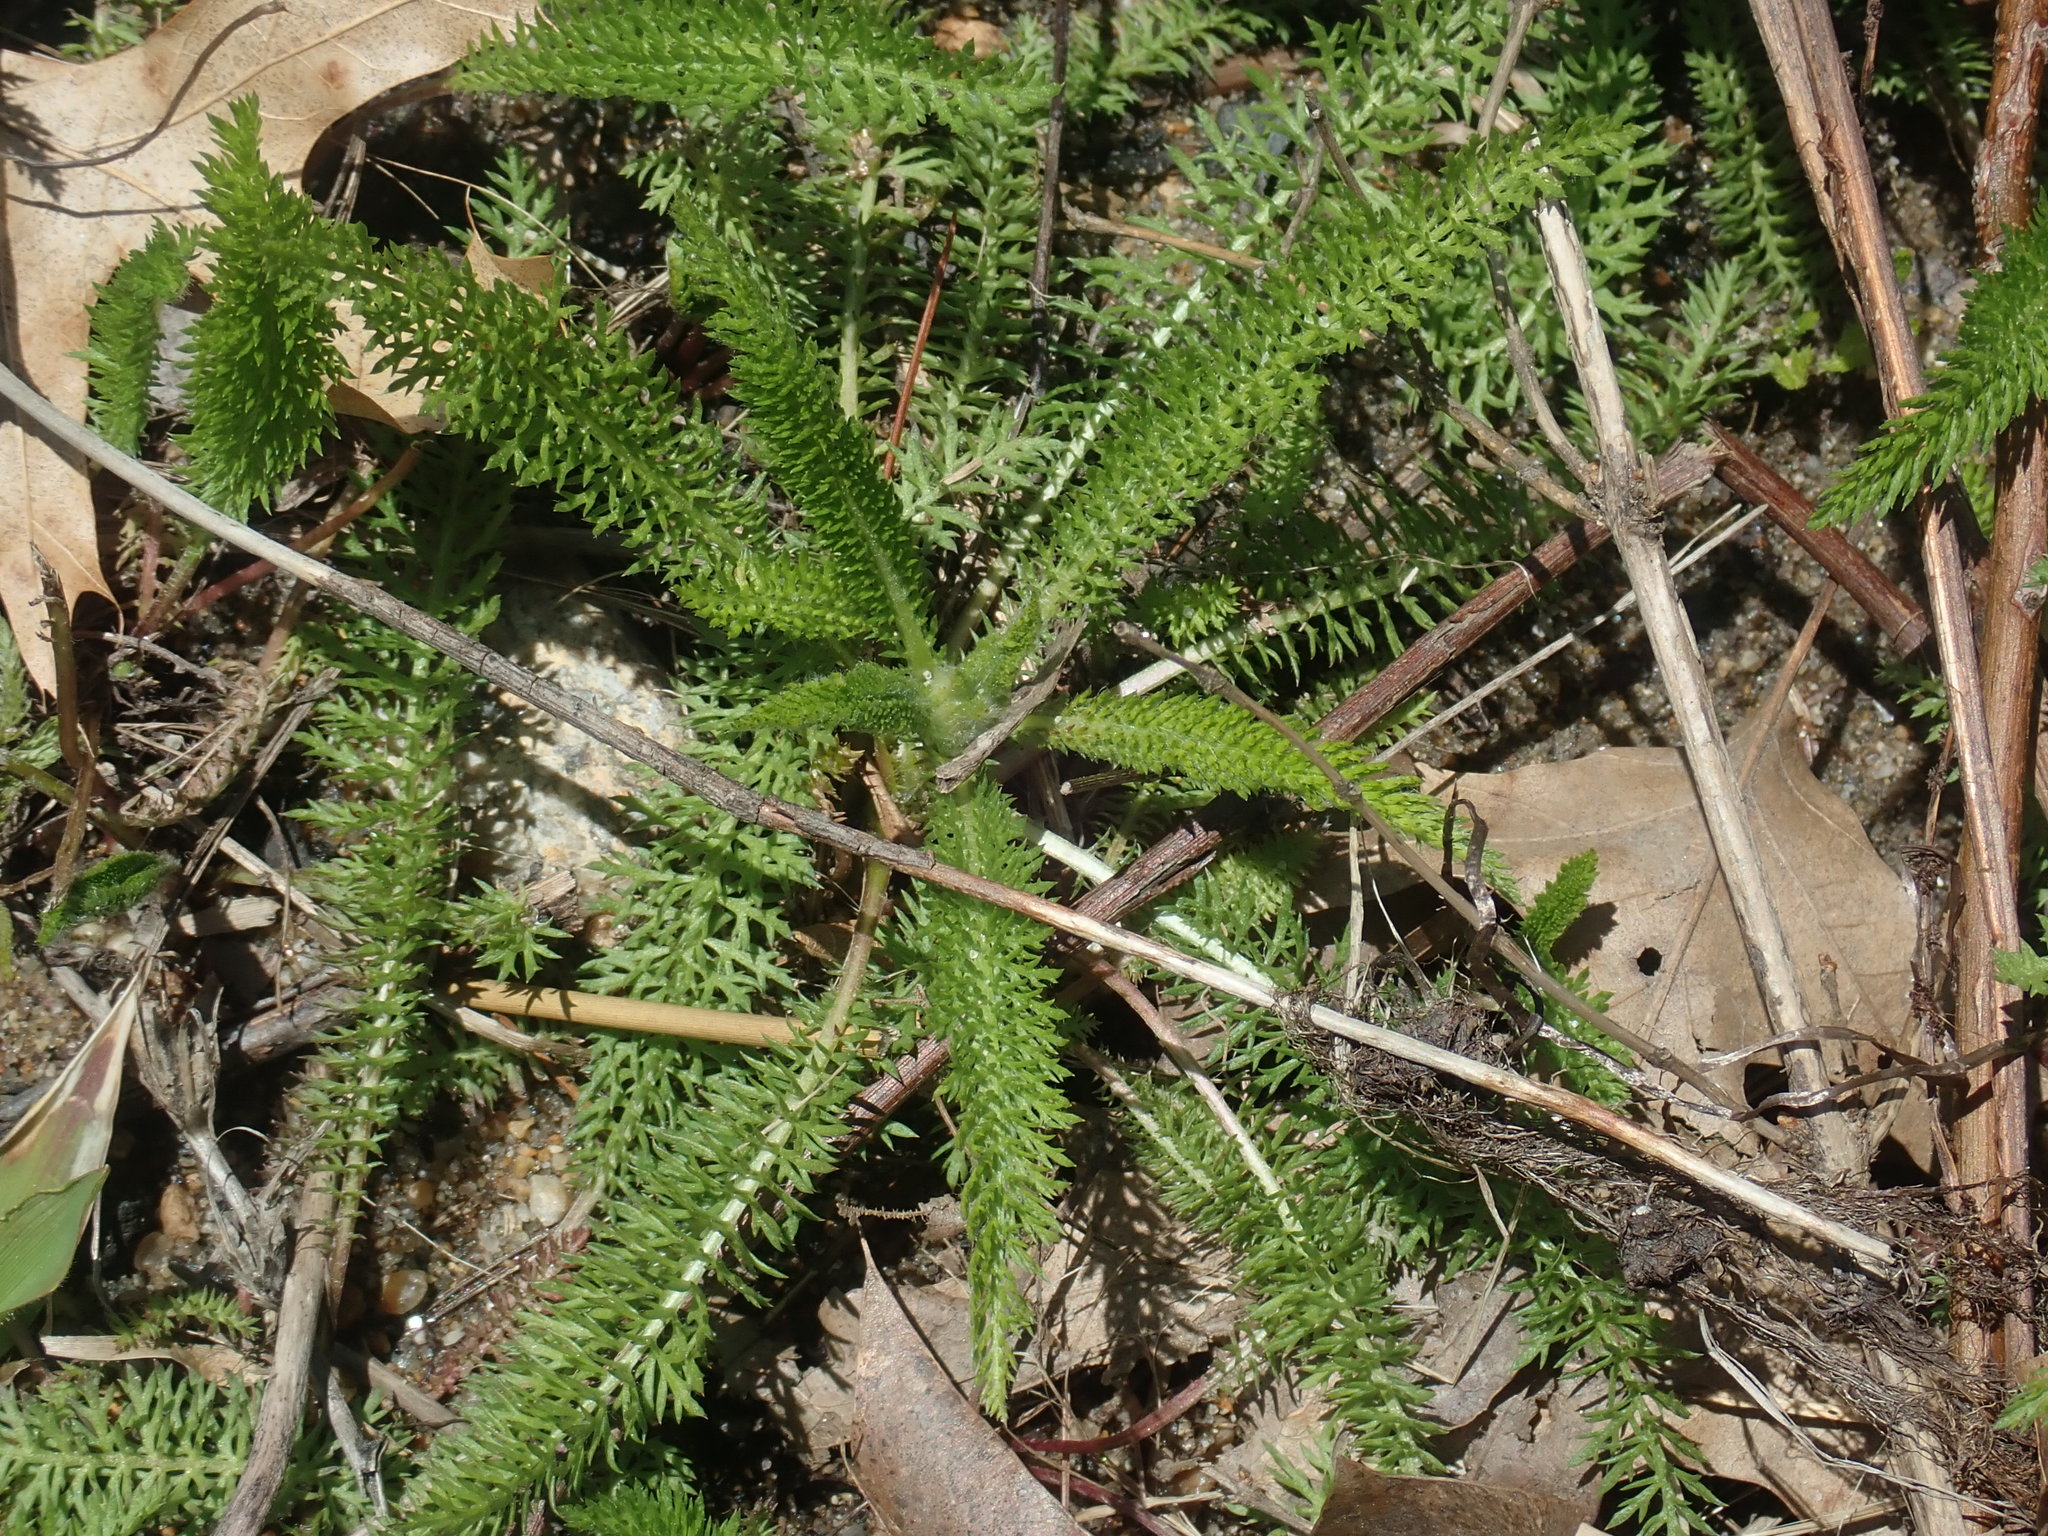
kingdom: Plantae
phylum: Tracheophyta
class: Magnoliopsida
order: Asterales
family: Asteraceae
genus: Achillea
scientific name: Achillea millefolium
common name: Yarrow
